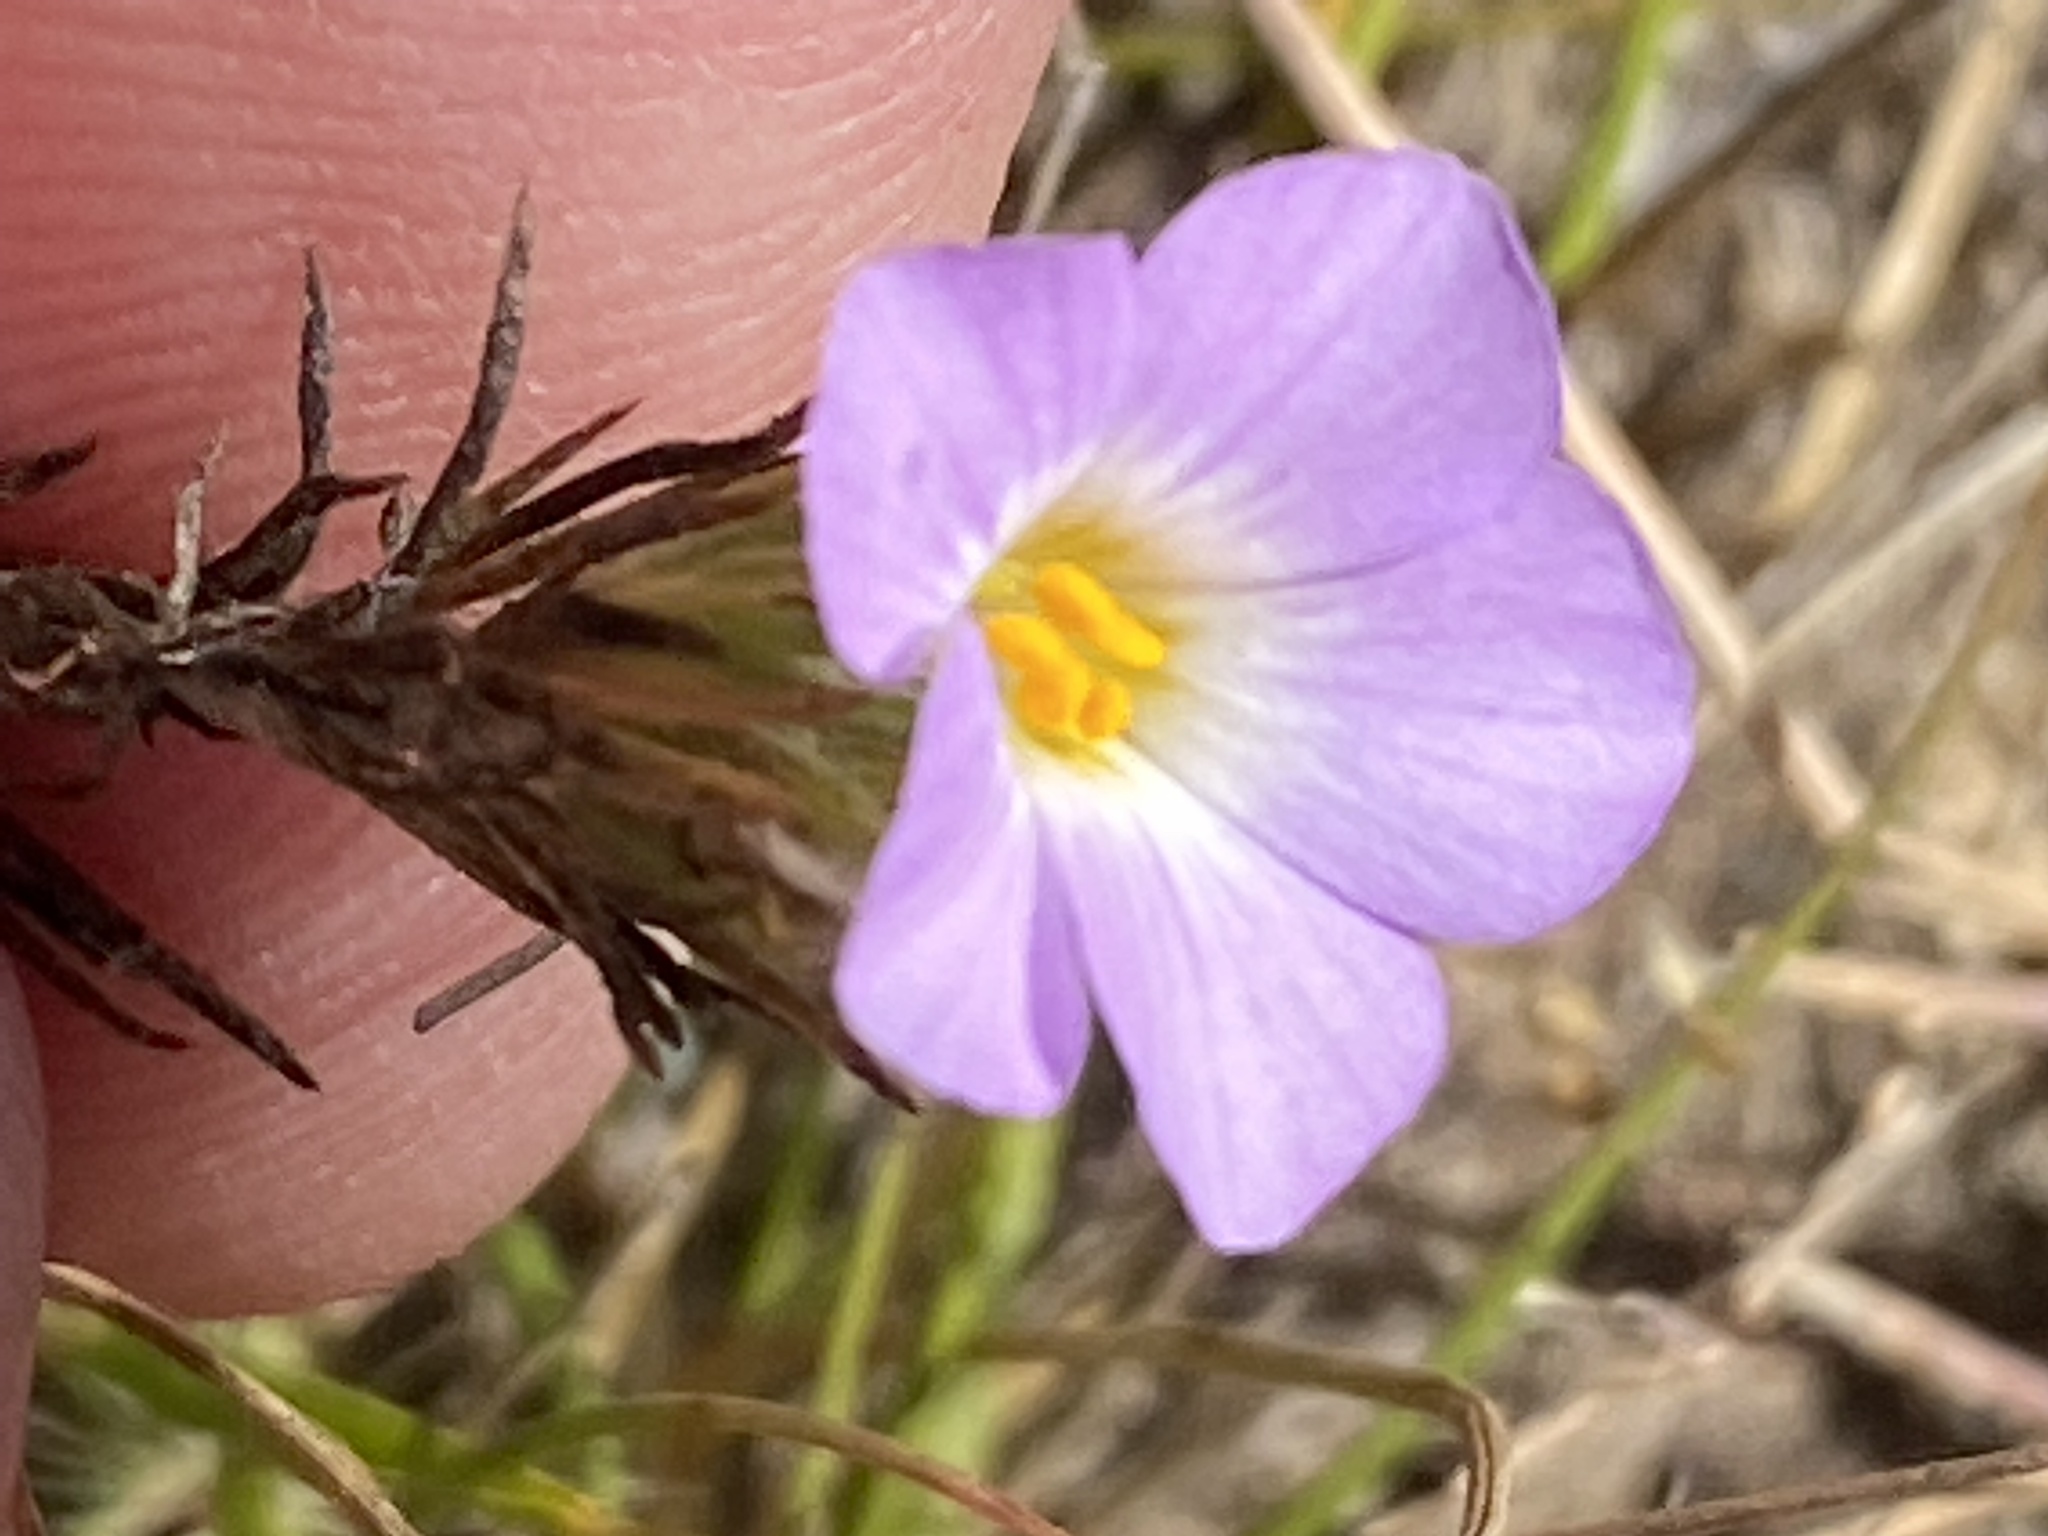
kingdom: Plantae
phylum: Tracheophyta
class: Magnoliopsida
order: Ericales
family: Polemoniaceae
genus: Leptosiphon
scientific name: Leptosiphon grandiflorus
